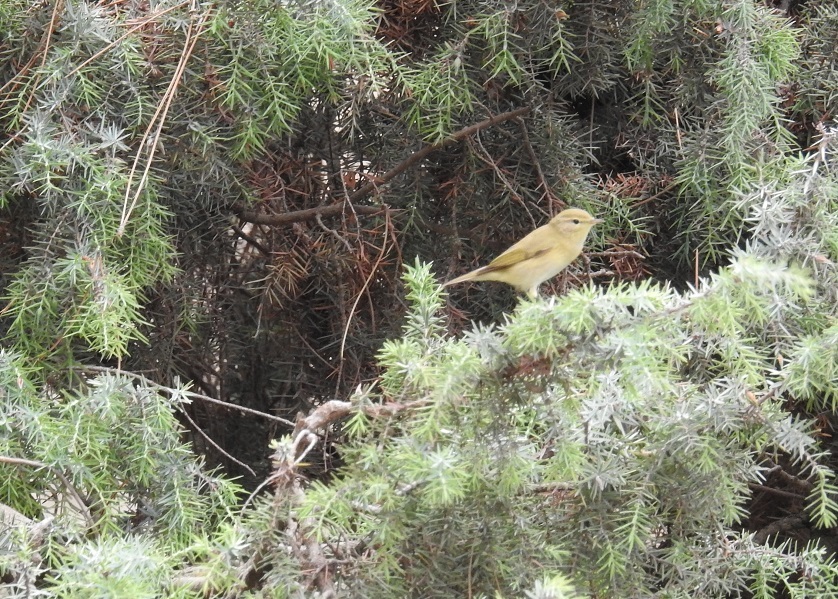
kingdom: Animalia
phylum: Chordata
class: Aves
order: Passeriformes
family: Phylloscopidae
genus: Phylloscopus
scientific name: Phylloscopus trochilus
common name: Willow warbler
